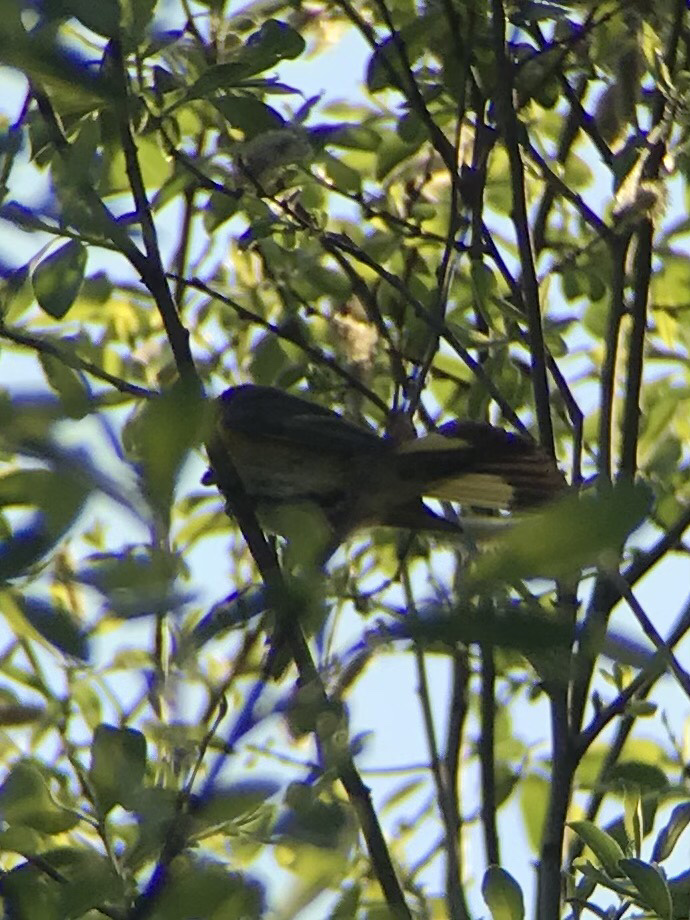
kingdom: Animalia
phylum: Chordata
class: Aves
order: Passeriformes
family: Parulidae
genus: Setophaga
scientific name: Setophaga ruticilla
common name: American redstart
